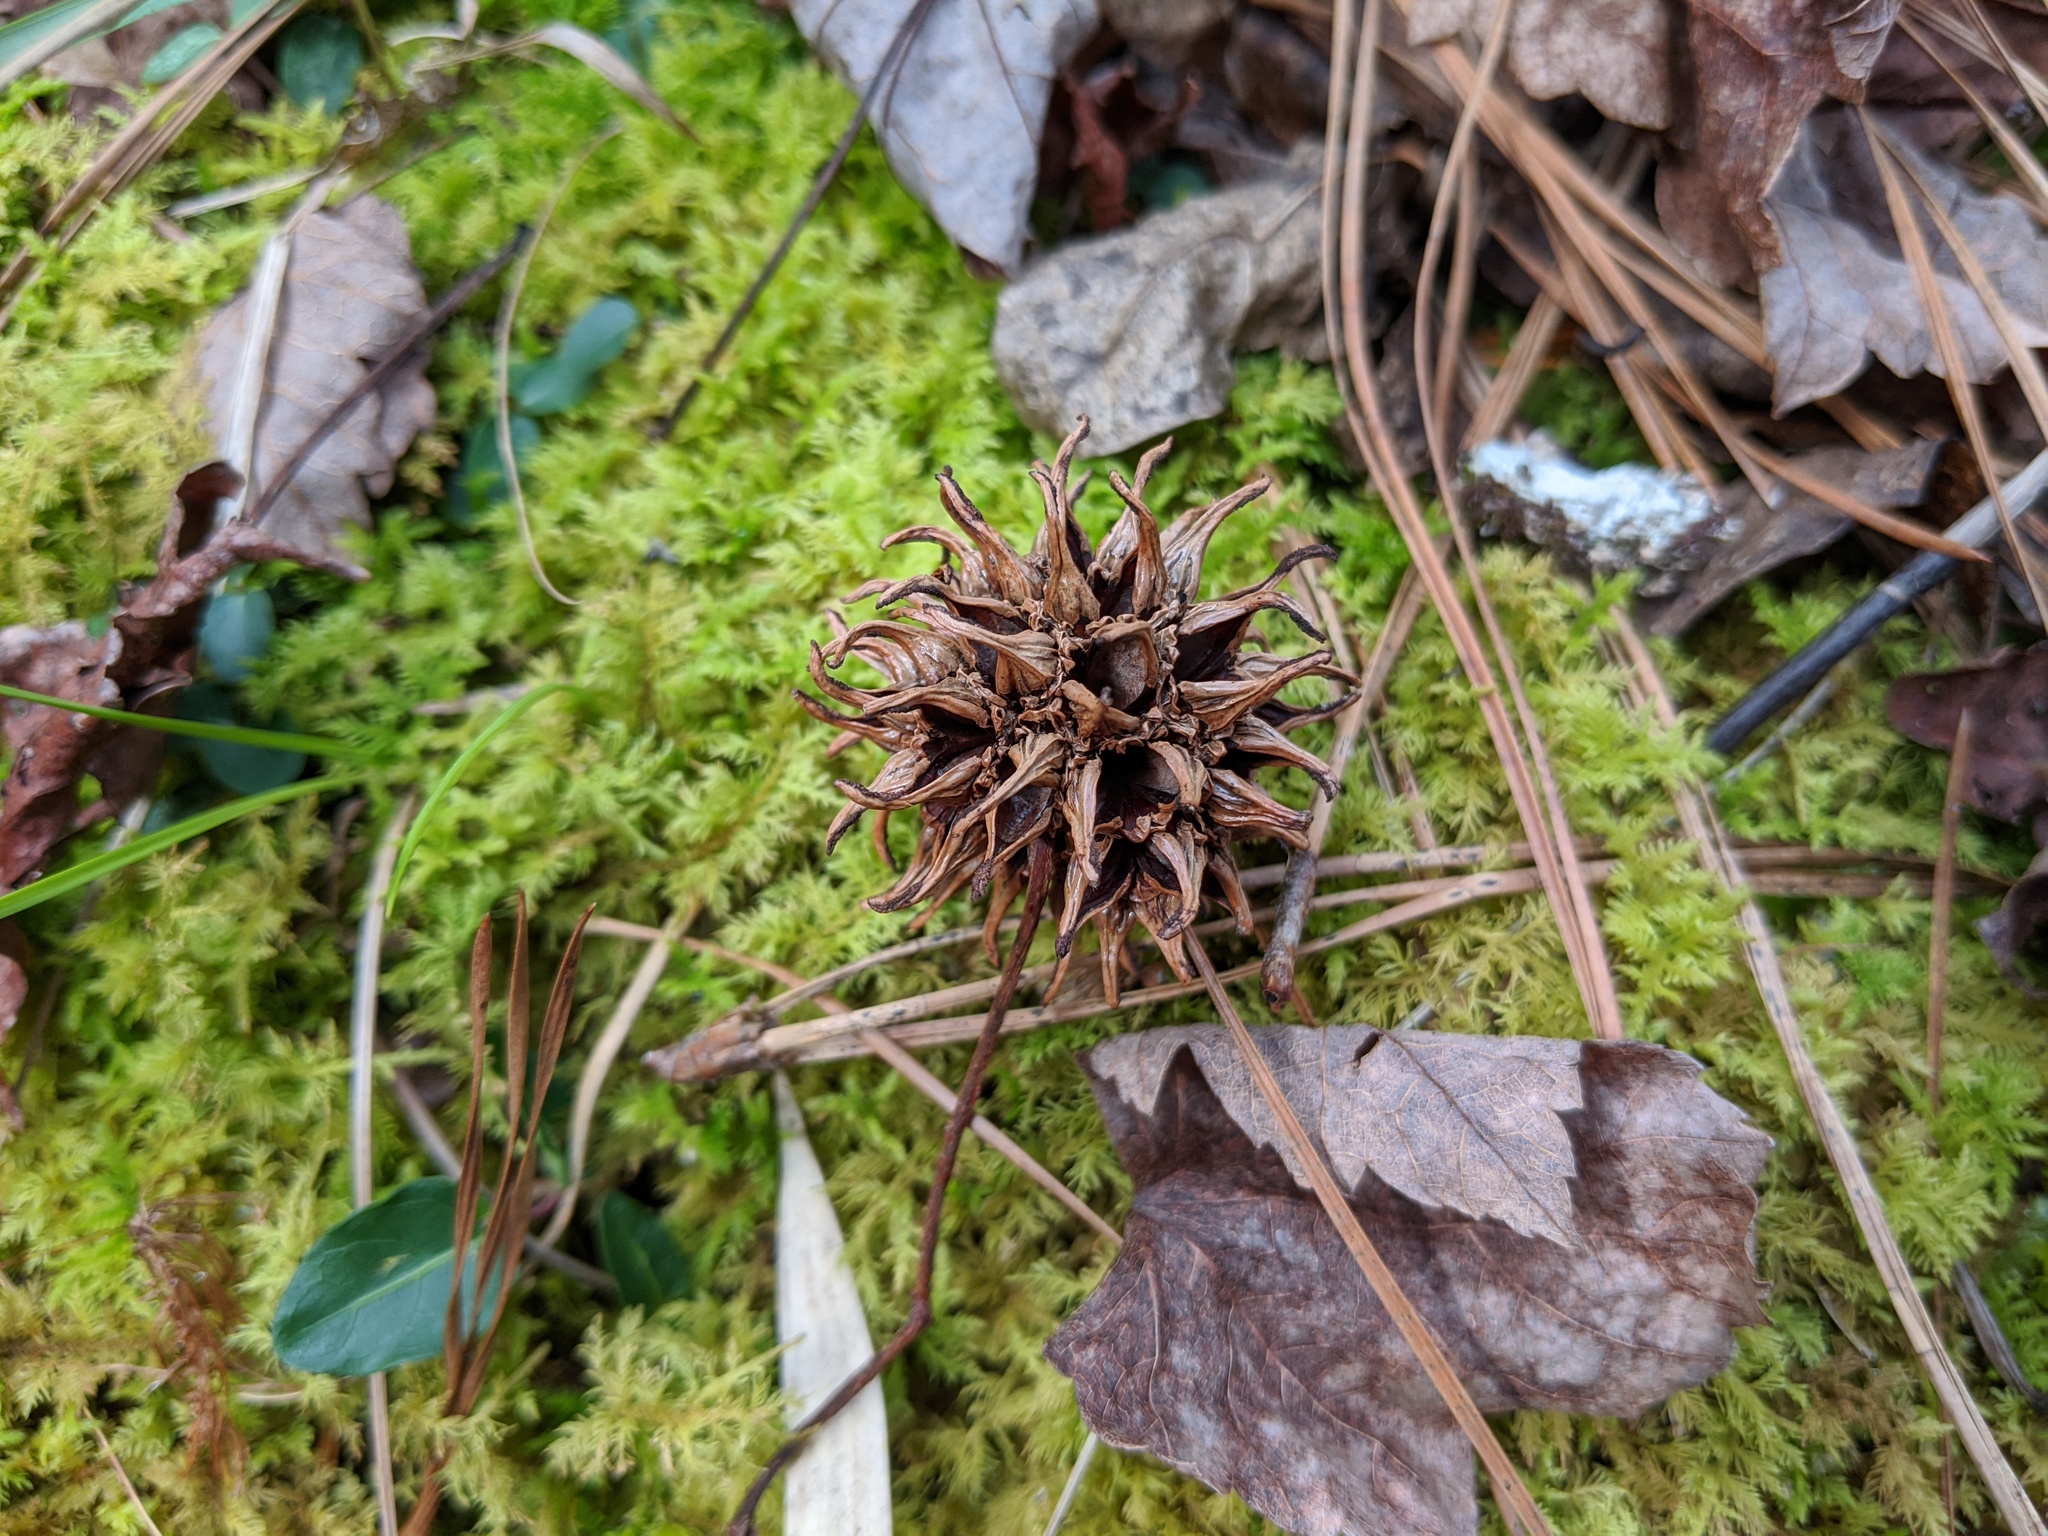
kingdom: Plantae
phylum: Tracheophyta
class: Magnoliopsida
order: Saxifragales
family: Altingiaceae
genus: Liquidambar
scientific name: Liquidambar styraciflua
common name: Sweet gum
